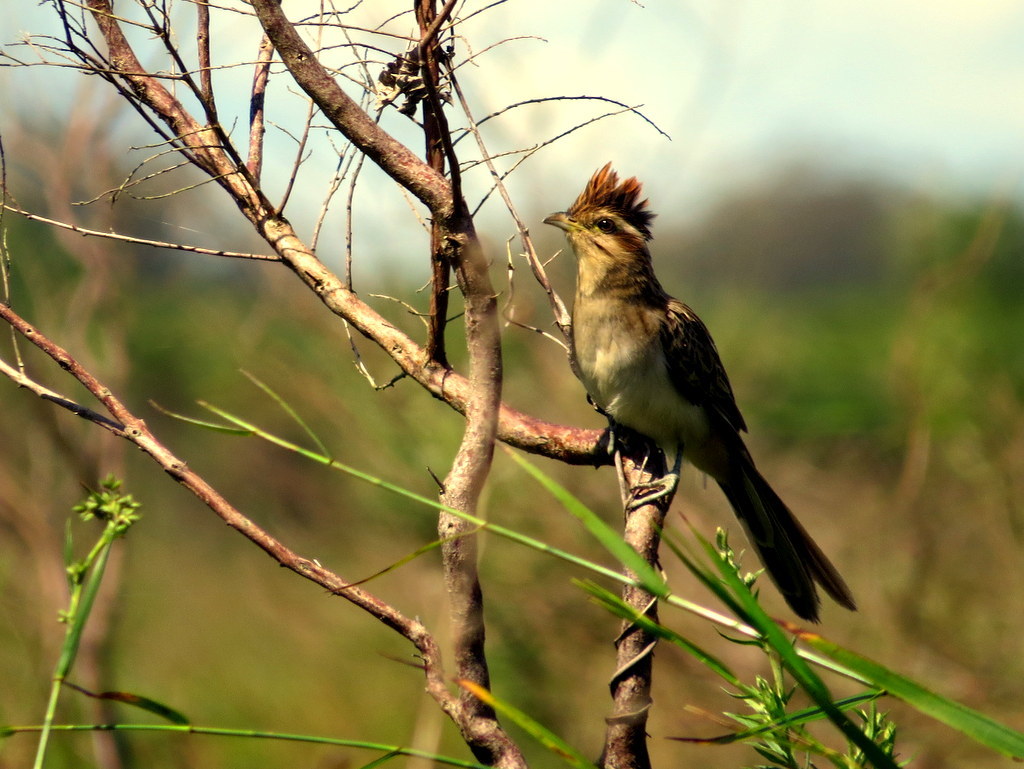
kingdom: Animalia
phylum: Chordata
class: Aves
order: Cuculiformes
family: Cuculidae
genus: Tapera
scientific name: Tapera naevia
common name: Striped cuckoo
